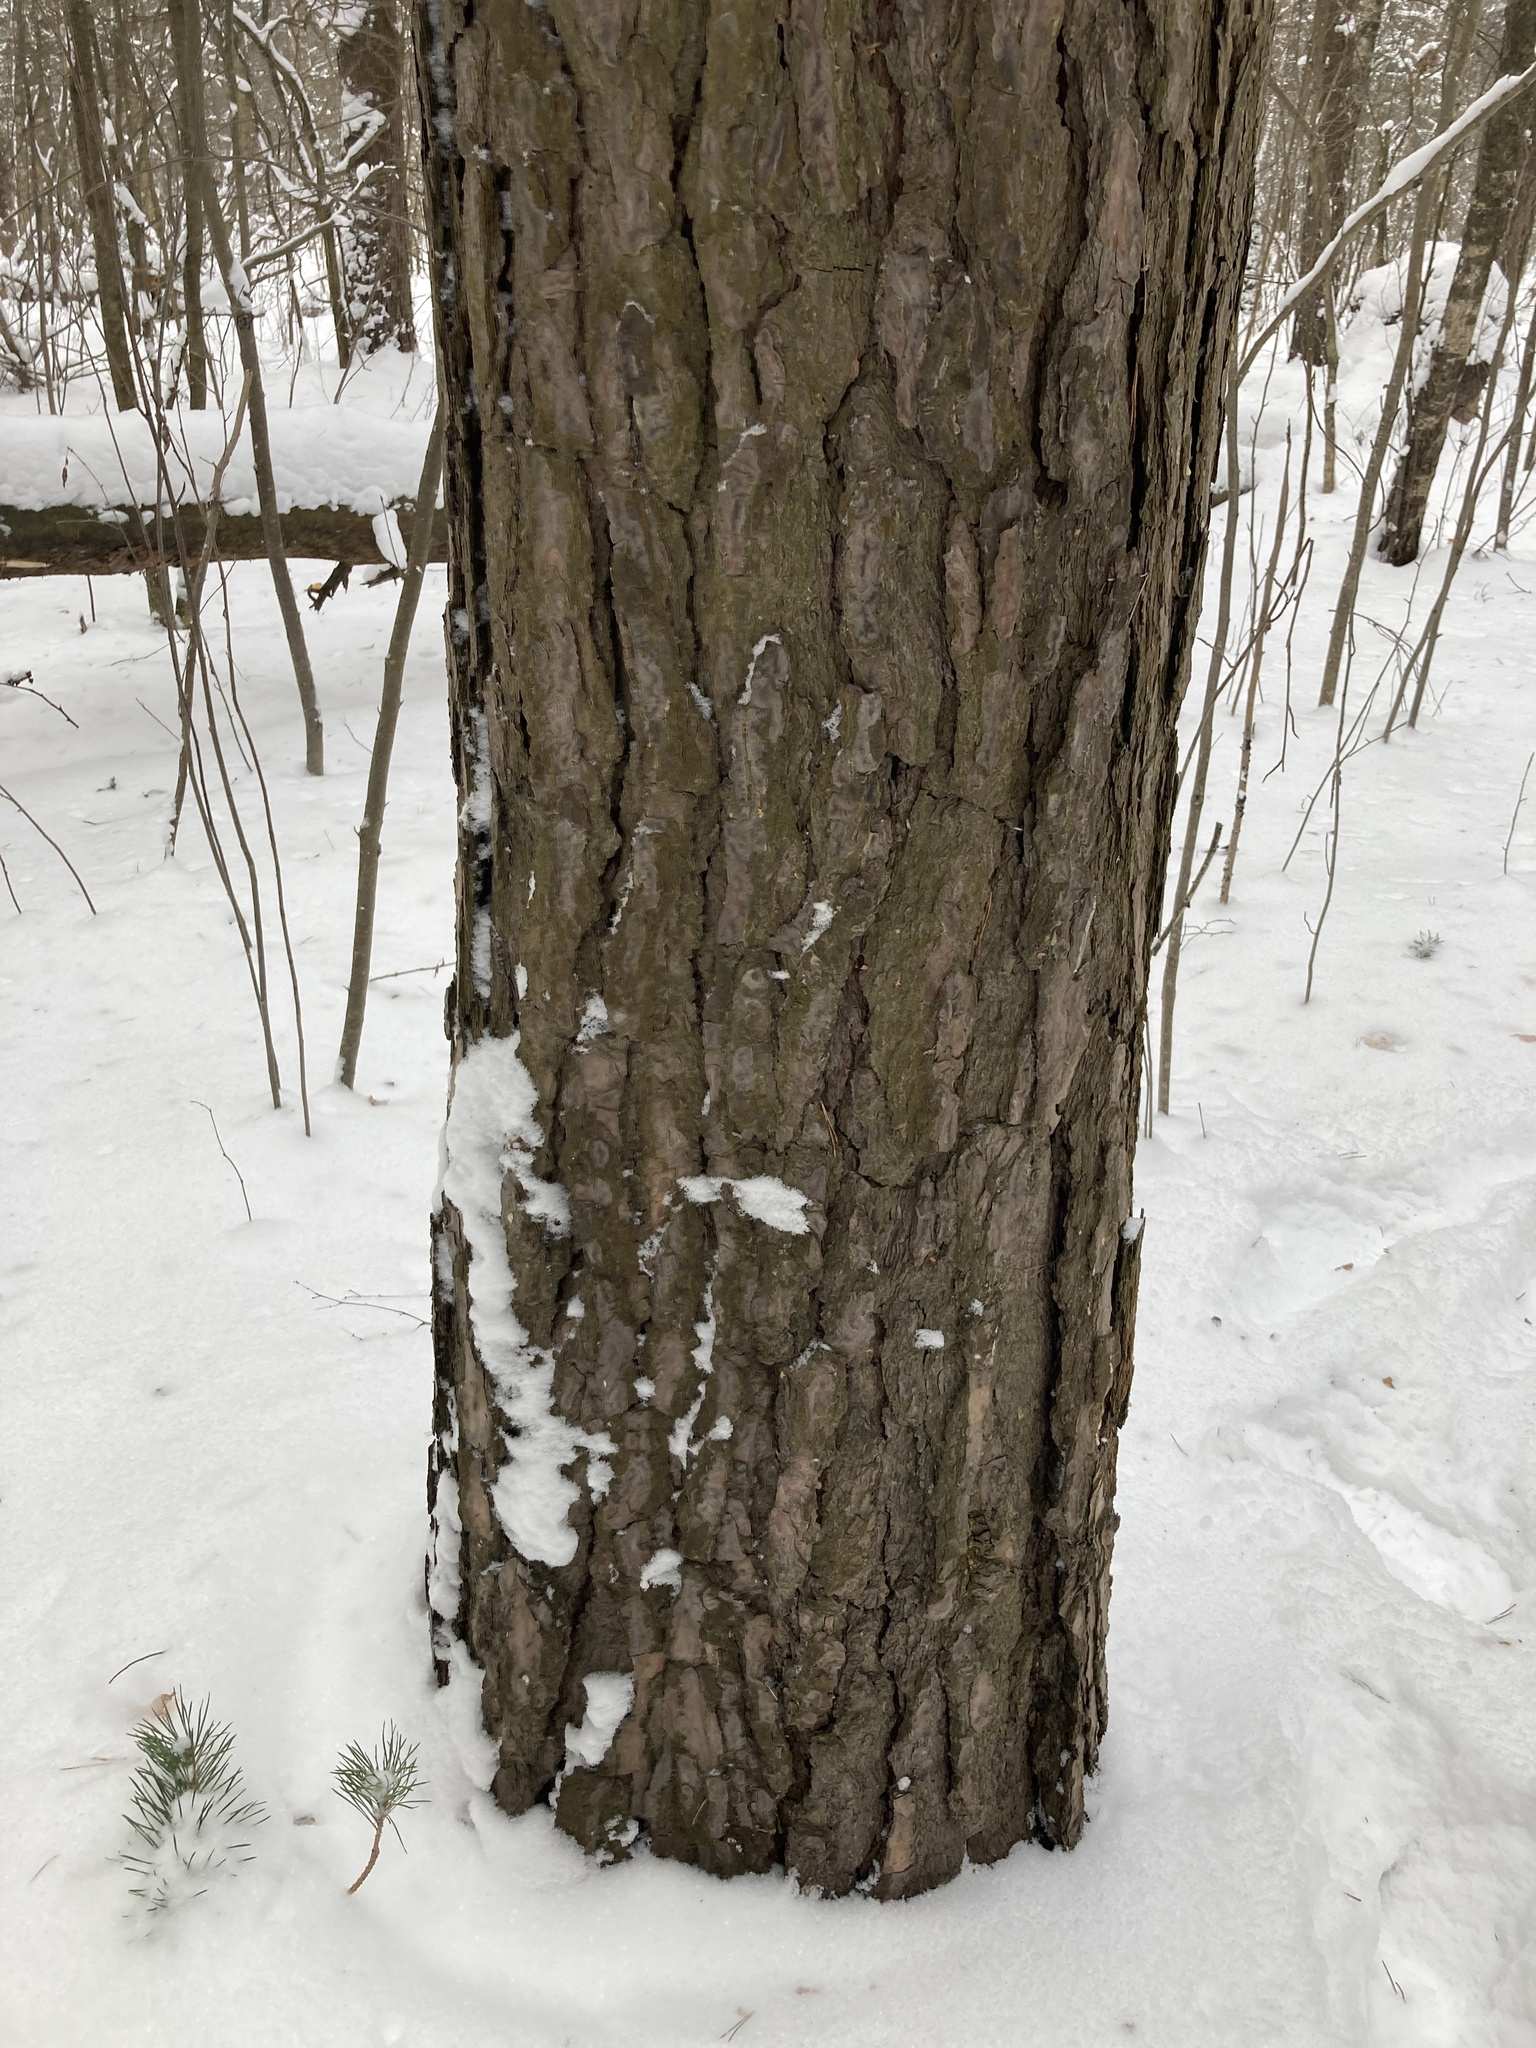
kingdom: Plantae
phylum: Tracheophyta
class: Pinopsida
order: Pinales
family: Pinaceae
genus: Pinus
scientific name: Pinus sylvestris
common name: Scots pine
